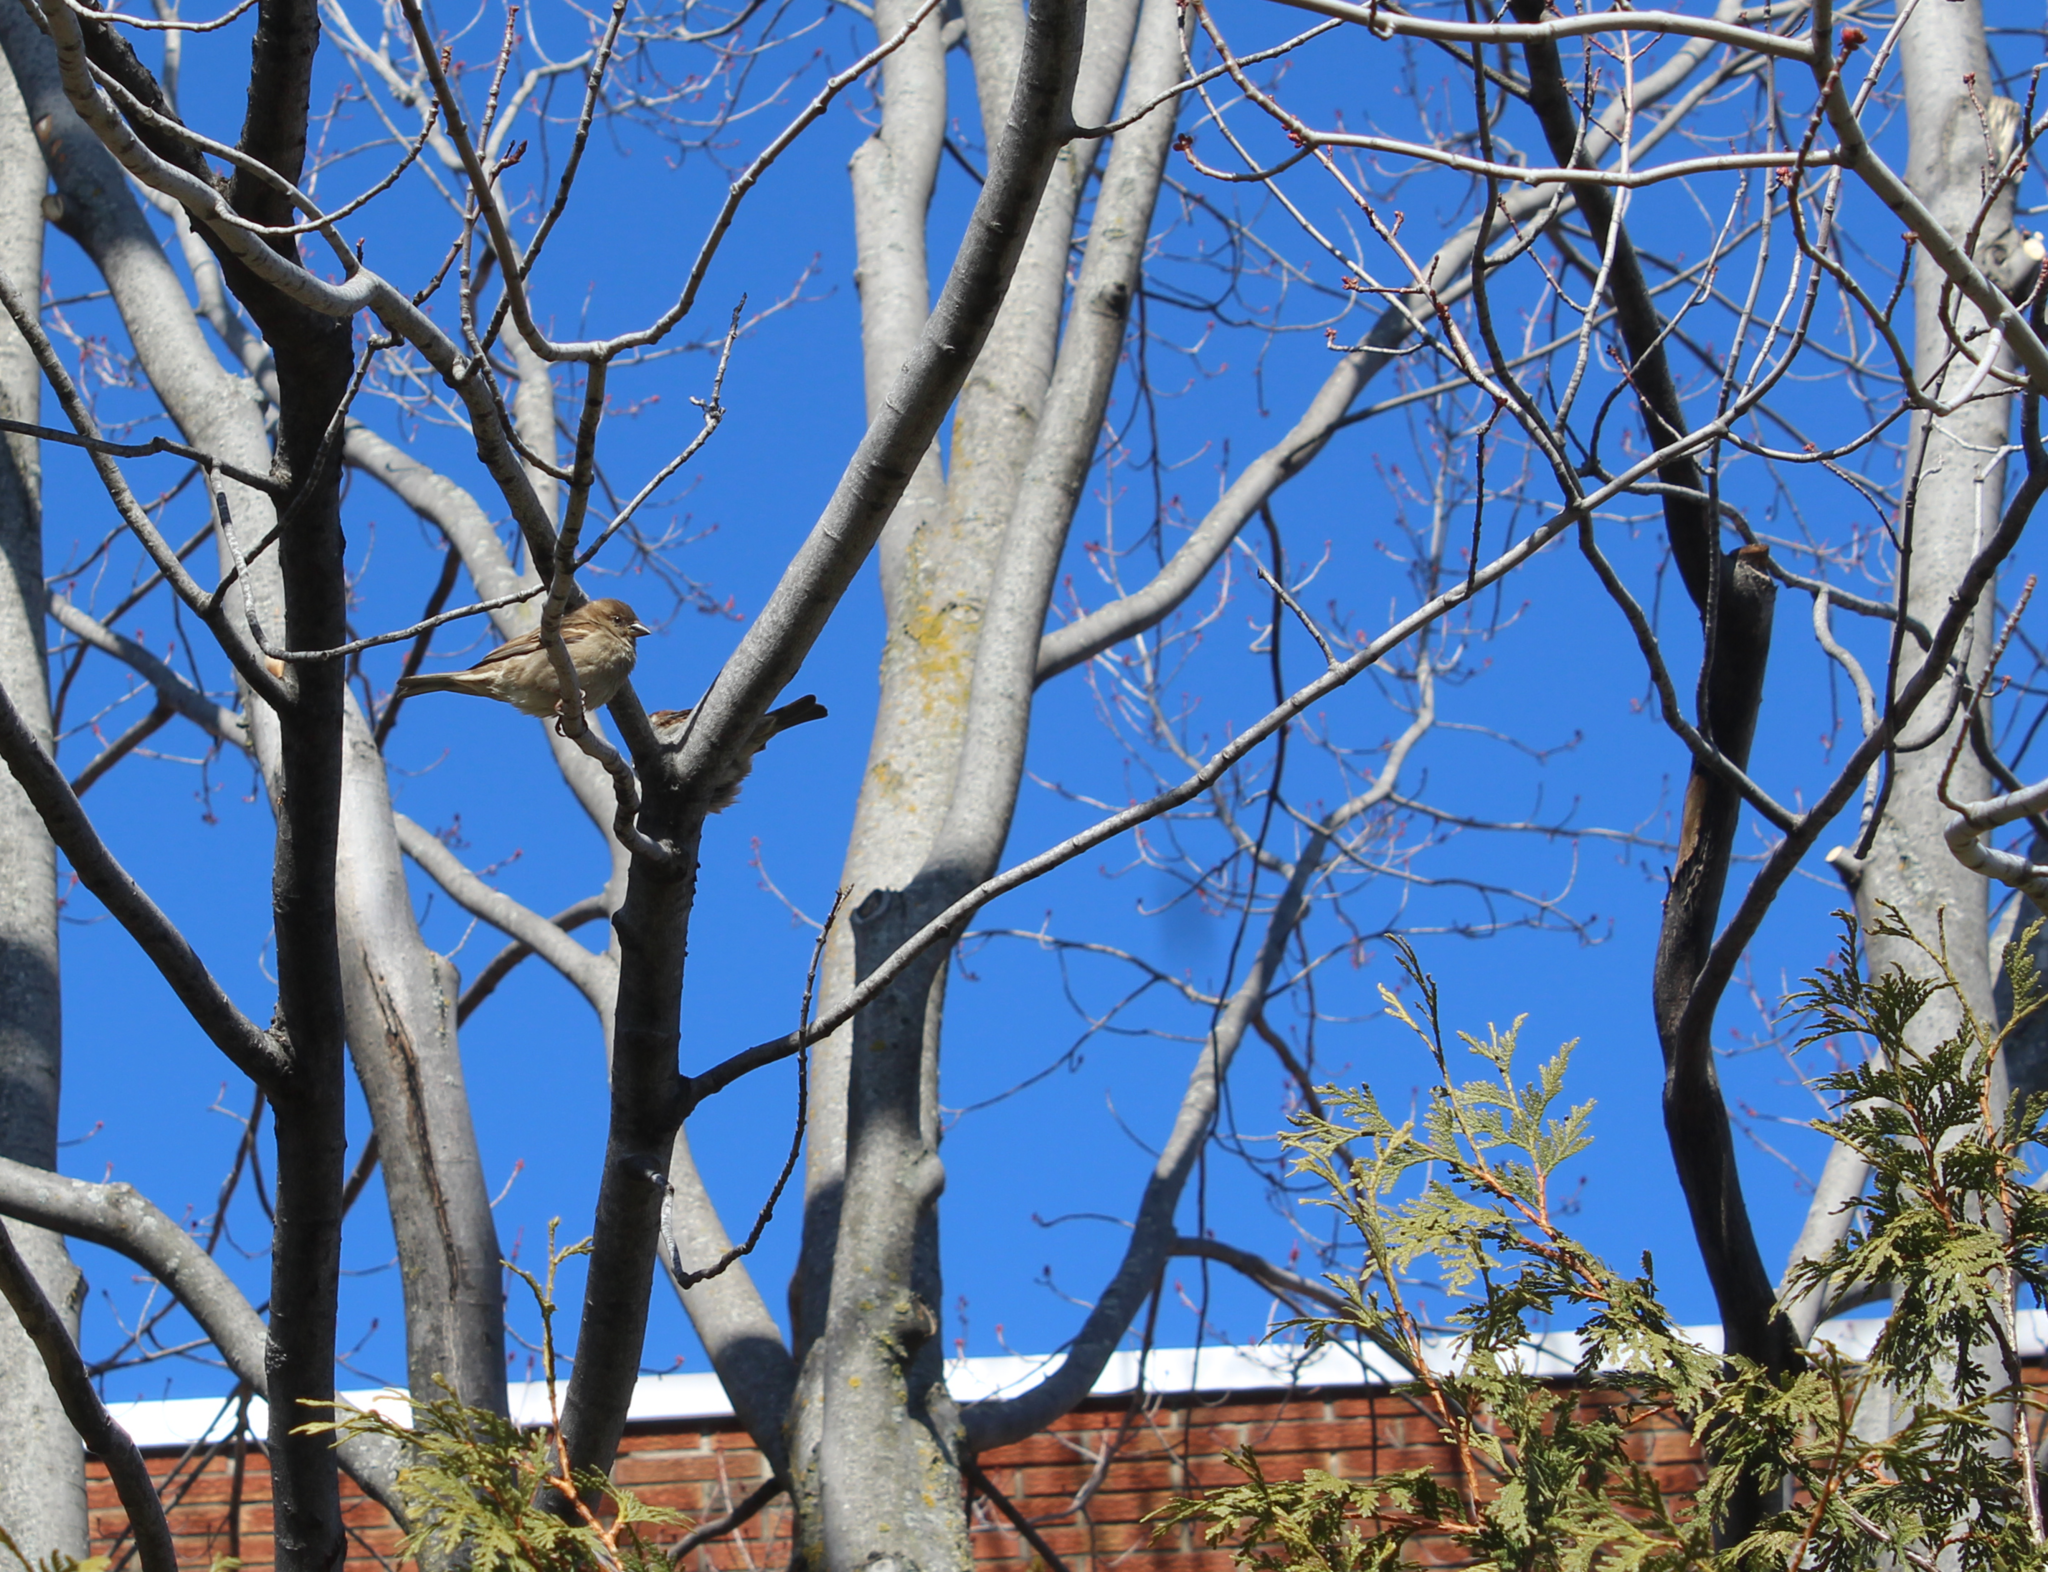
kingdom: Animalia
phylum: Chordata
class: Aves
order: Passeriformes
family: Passeridae
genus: Passer
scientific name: Passer domesticus
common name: House sparrow
